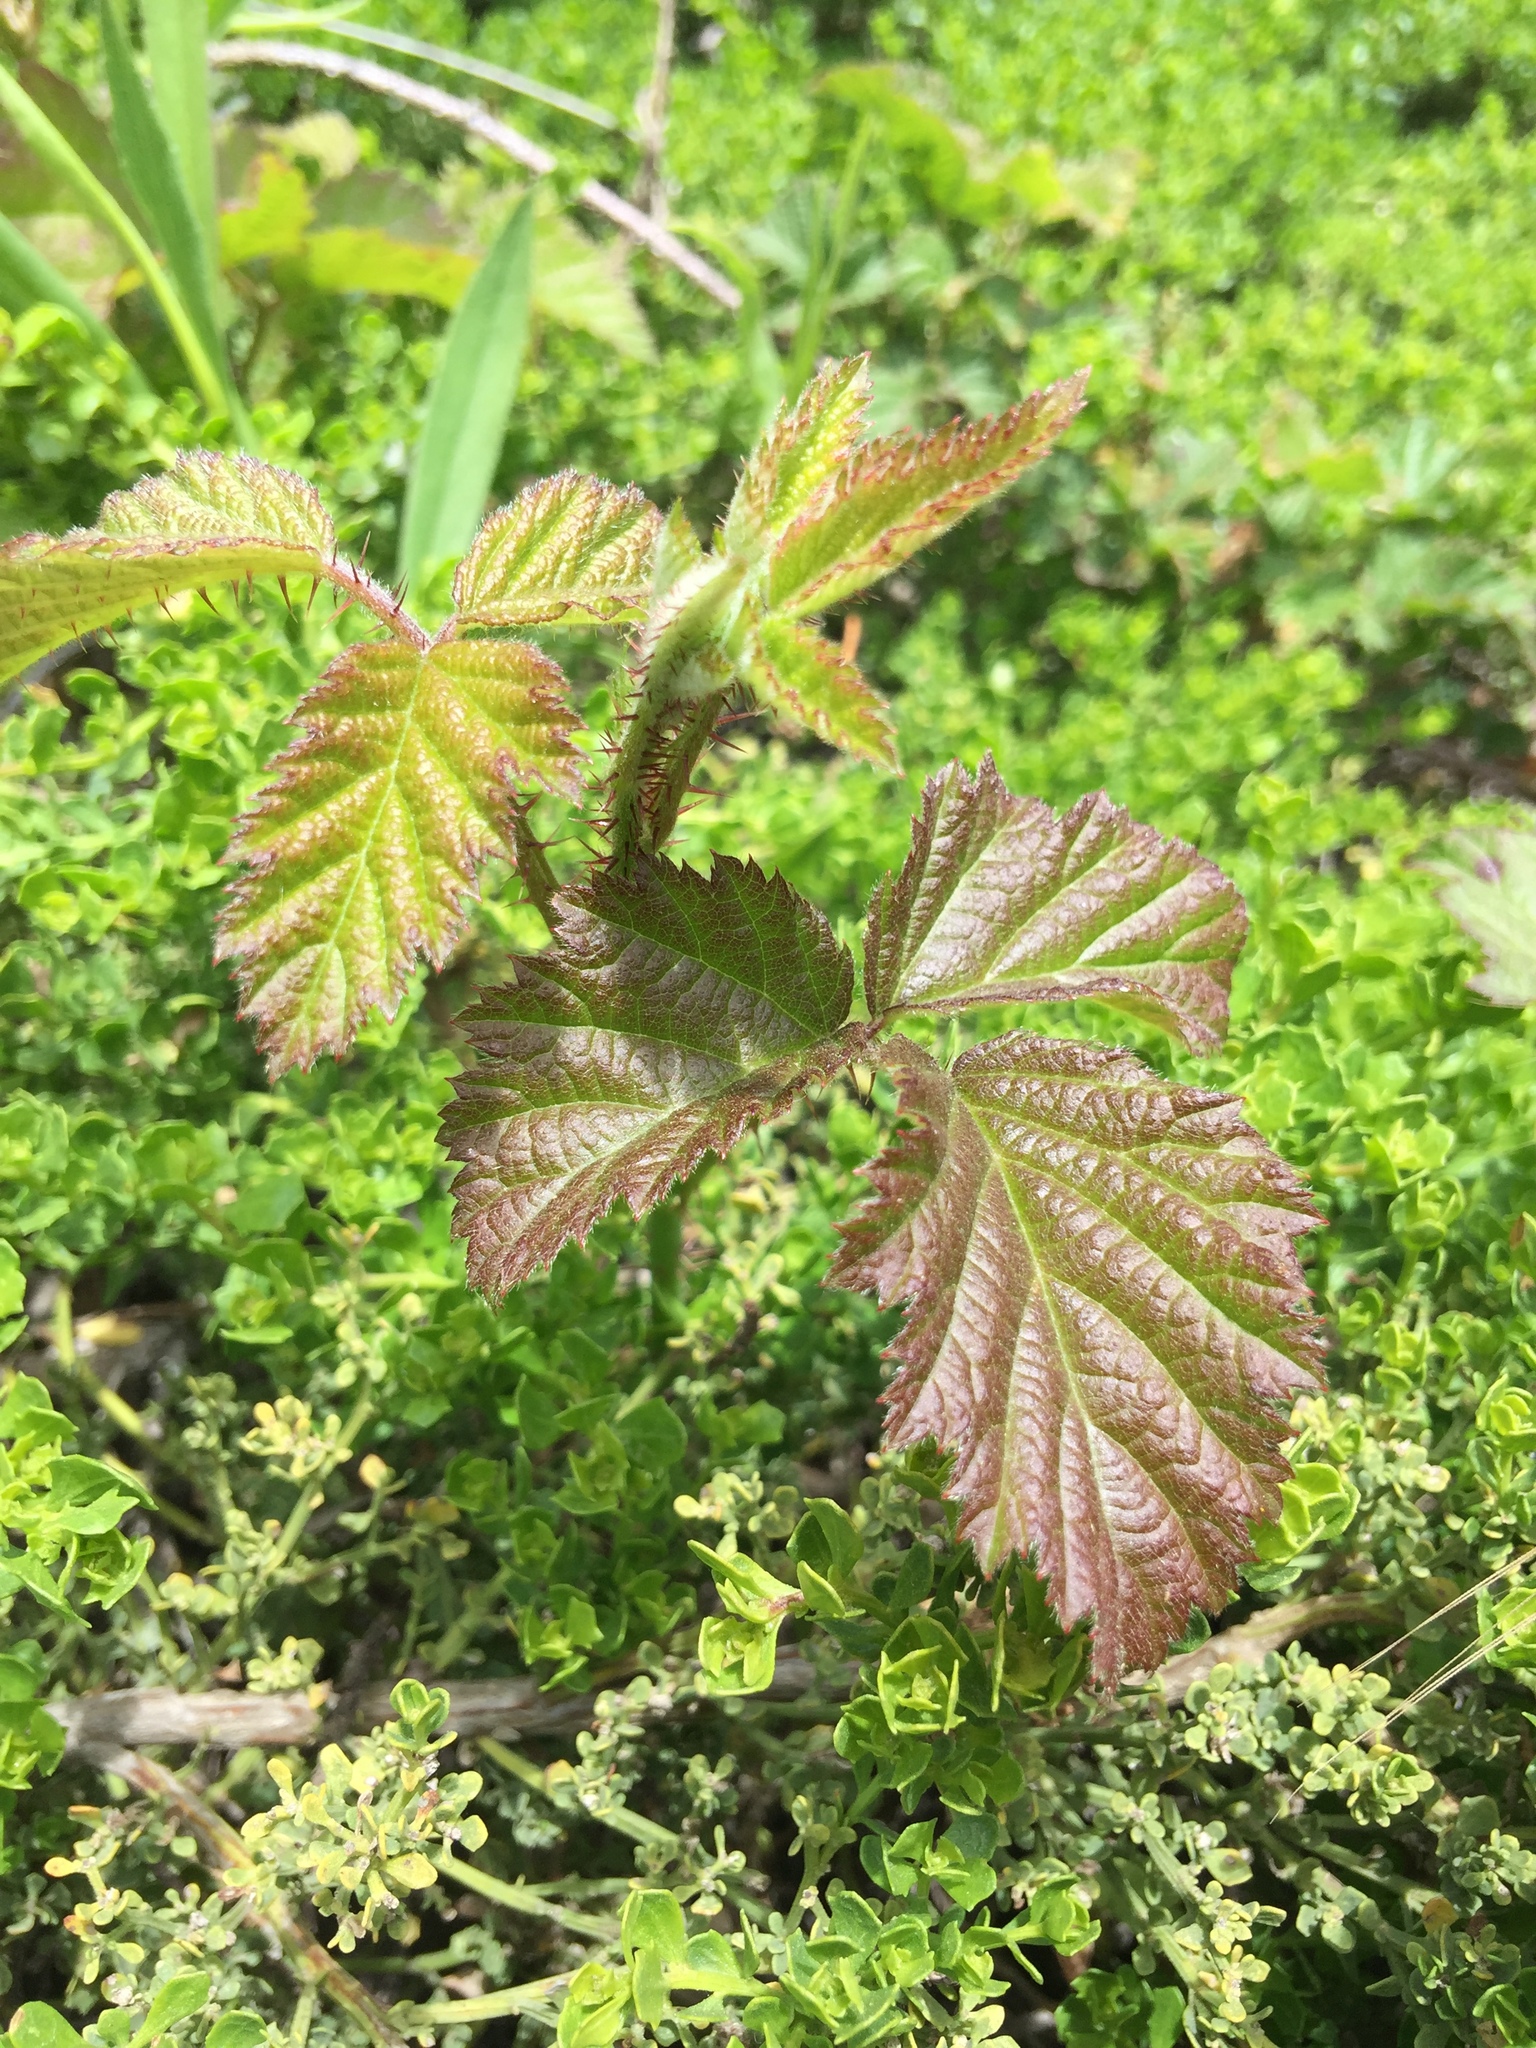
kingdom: Plantae
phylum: Tracheophyta
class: Magnoliopsida
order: Rosales
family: Rosaceae
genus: Rubus
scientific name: Rubus ursinus
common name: Pacific blackberry
